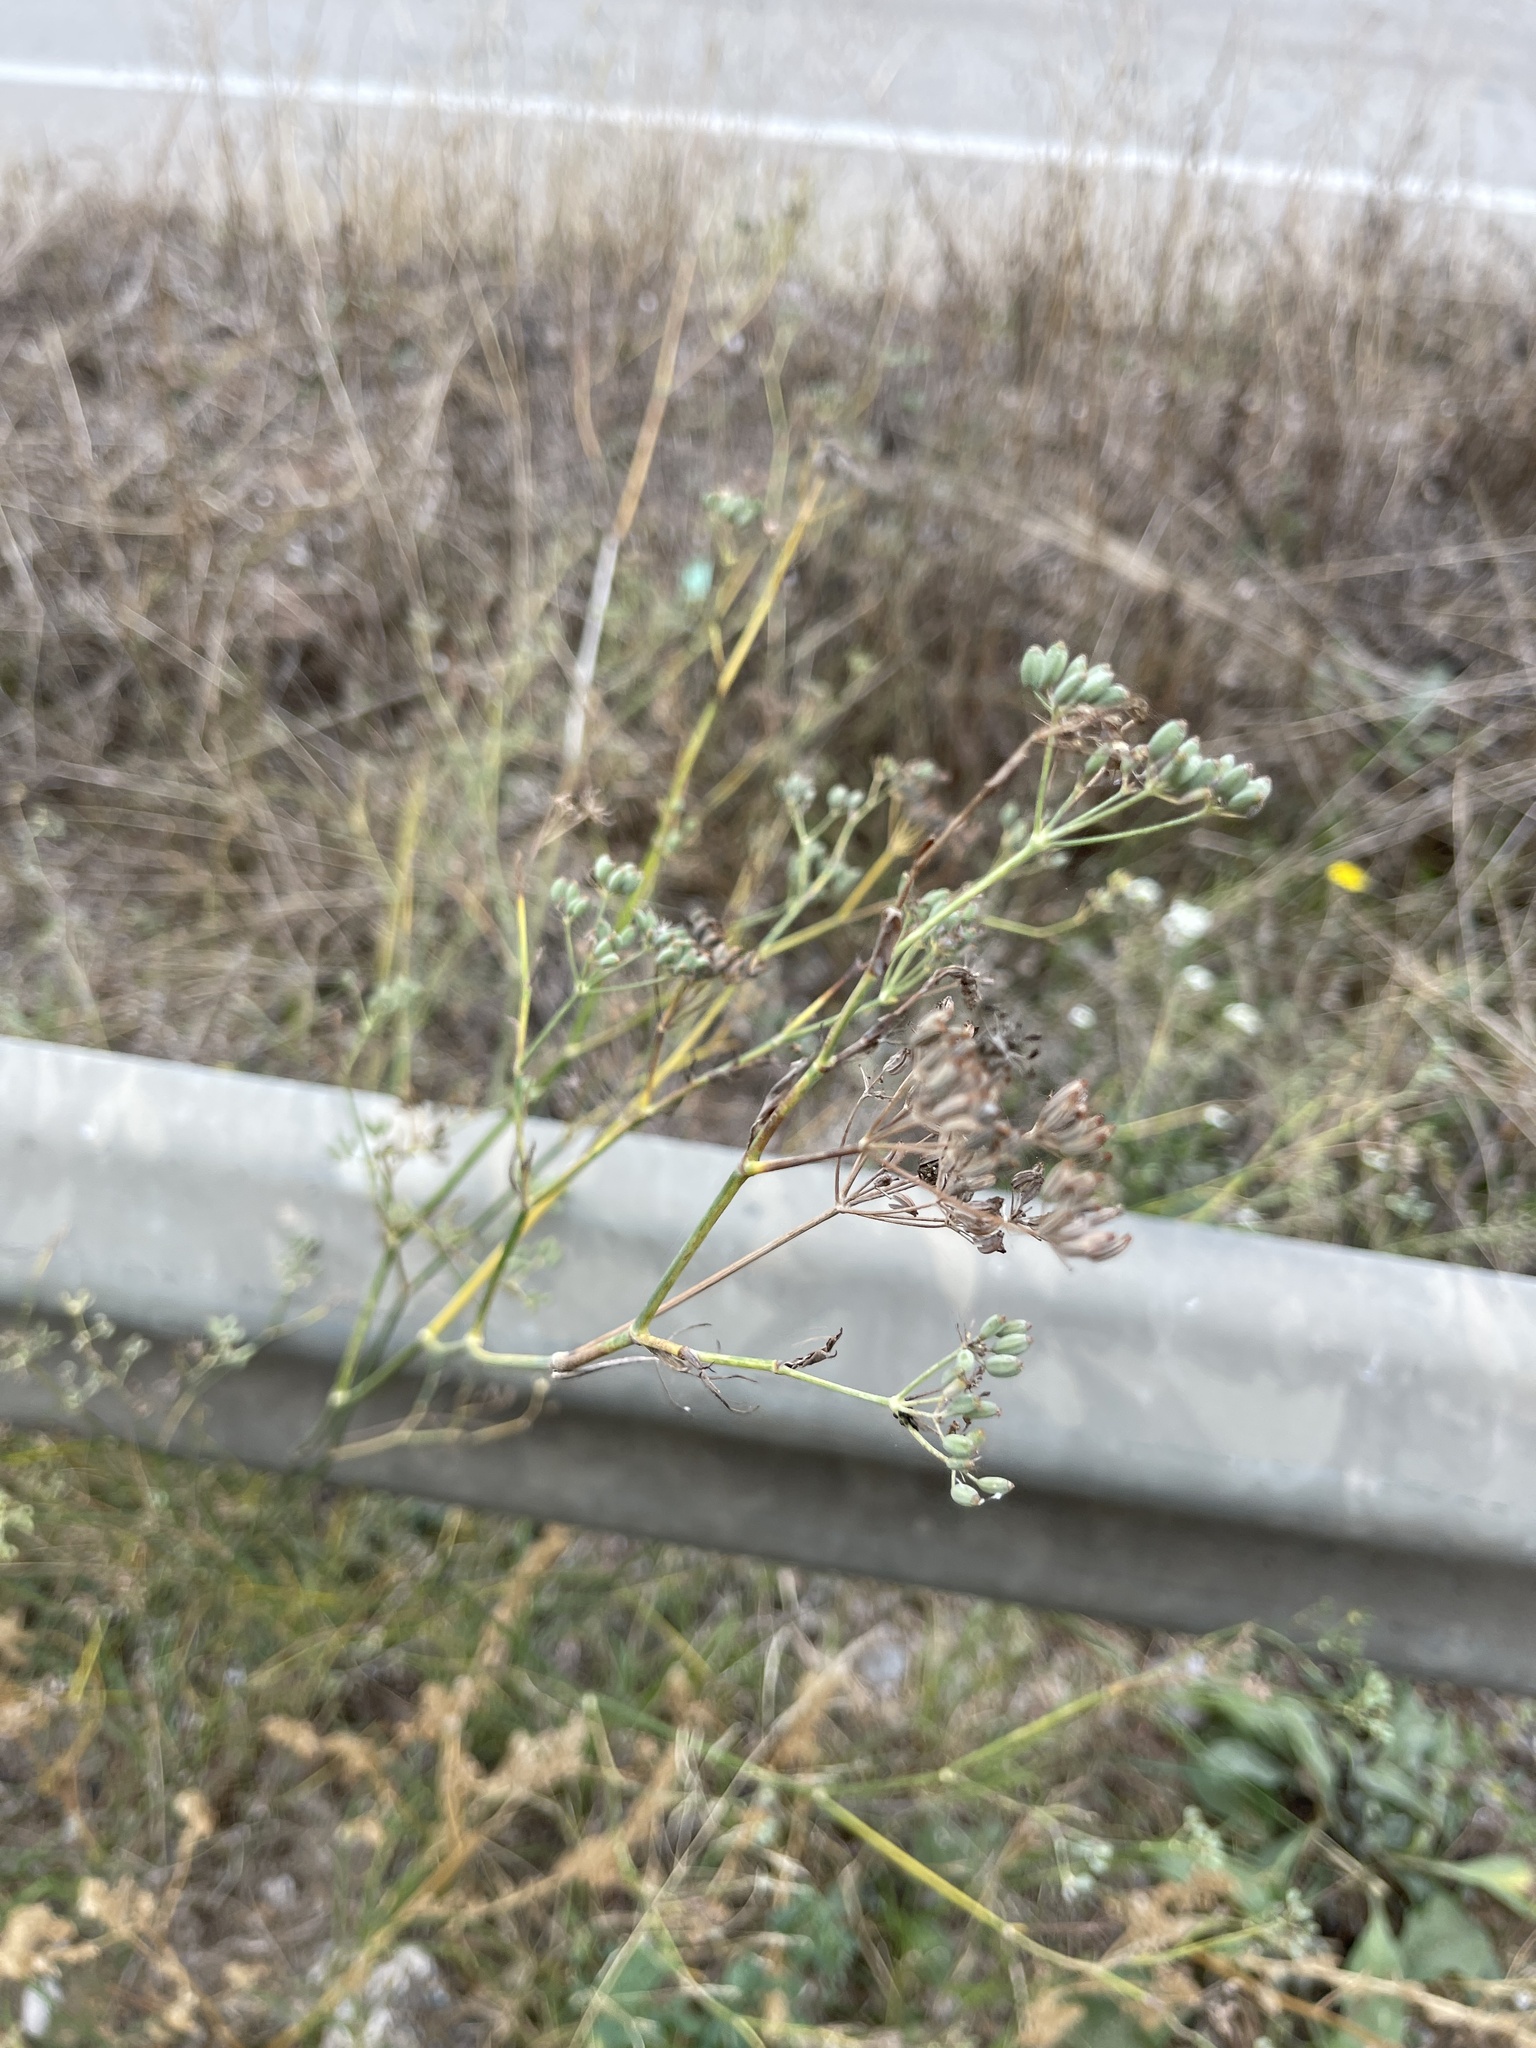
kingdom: Plantae
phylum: Tracheophyta
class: Magnoliopsida
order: Apiales
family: Apiaceae
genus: Foeniculum
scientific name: Foeniculum vulgare
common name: Fennel
